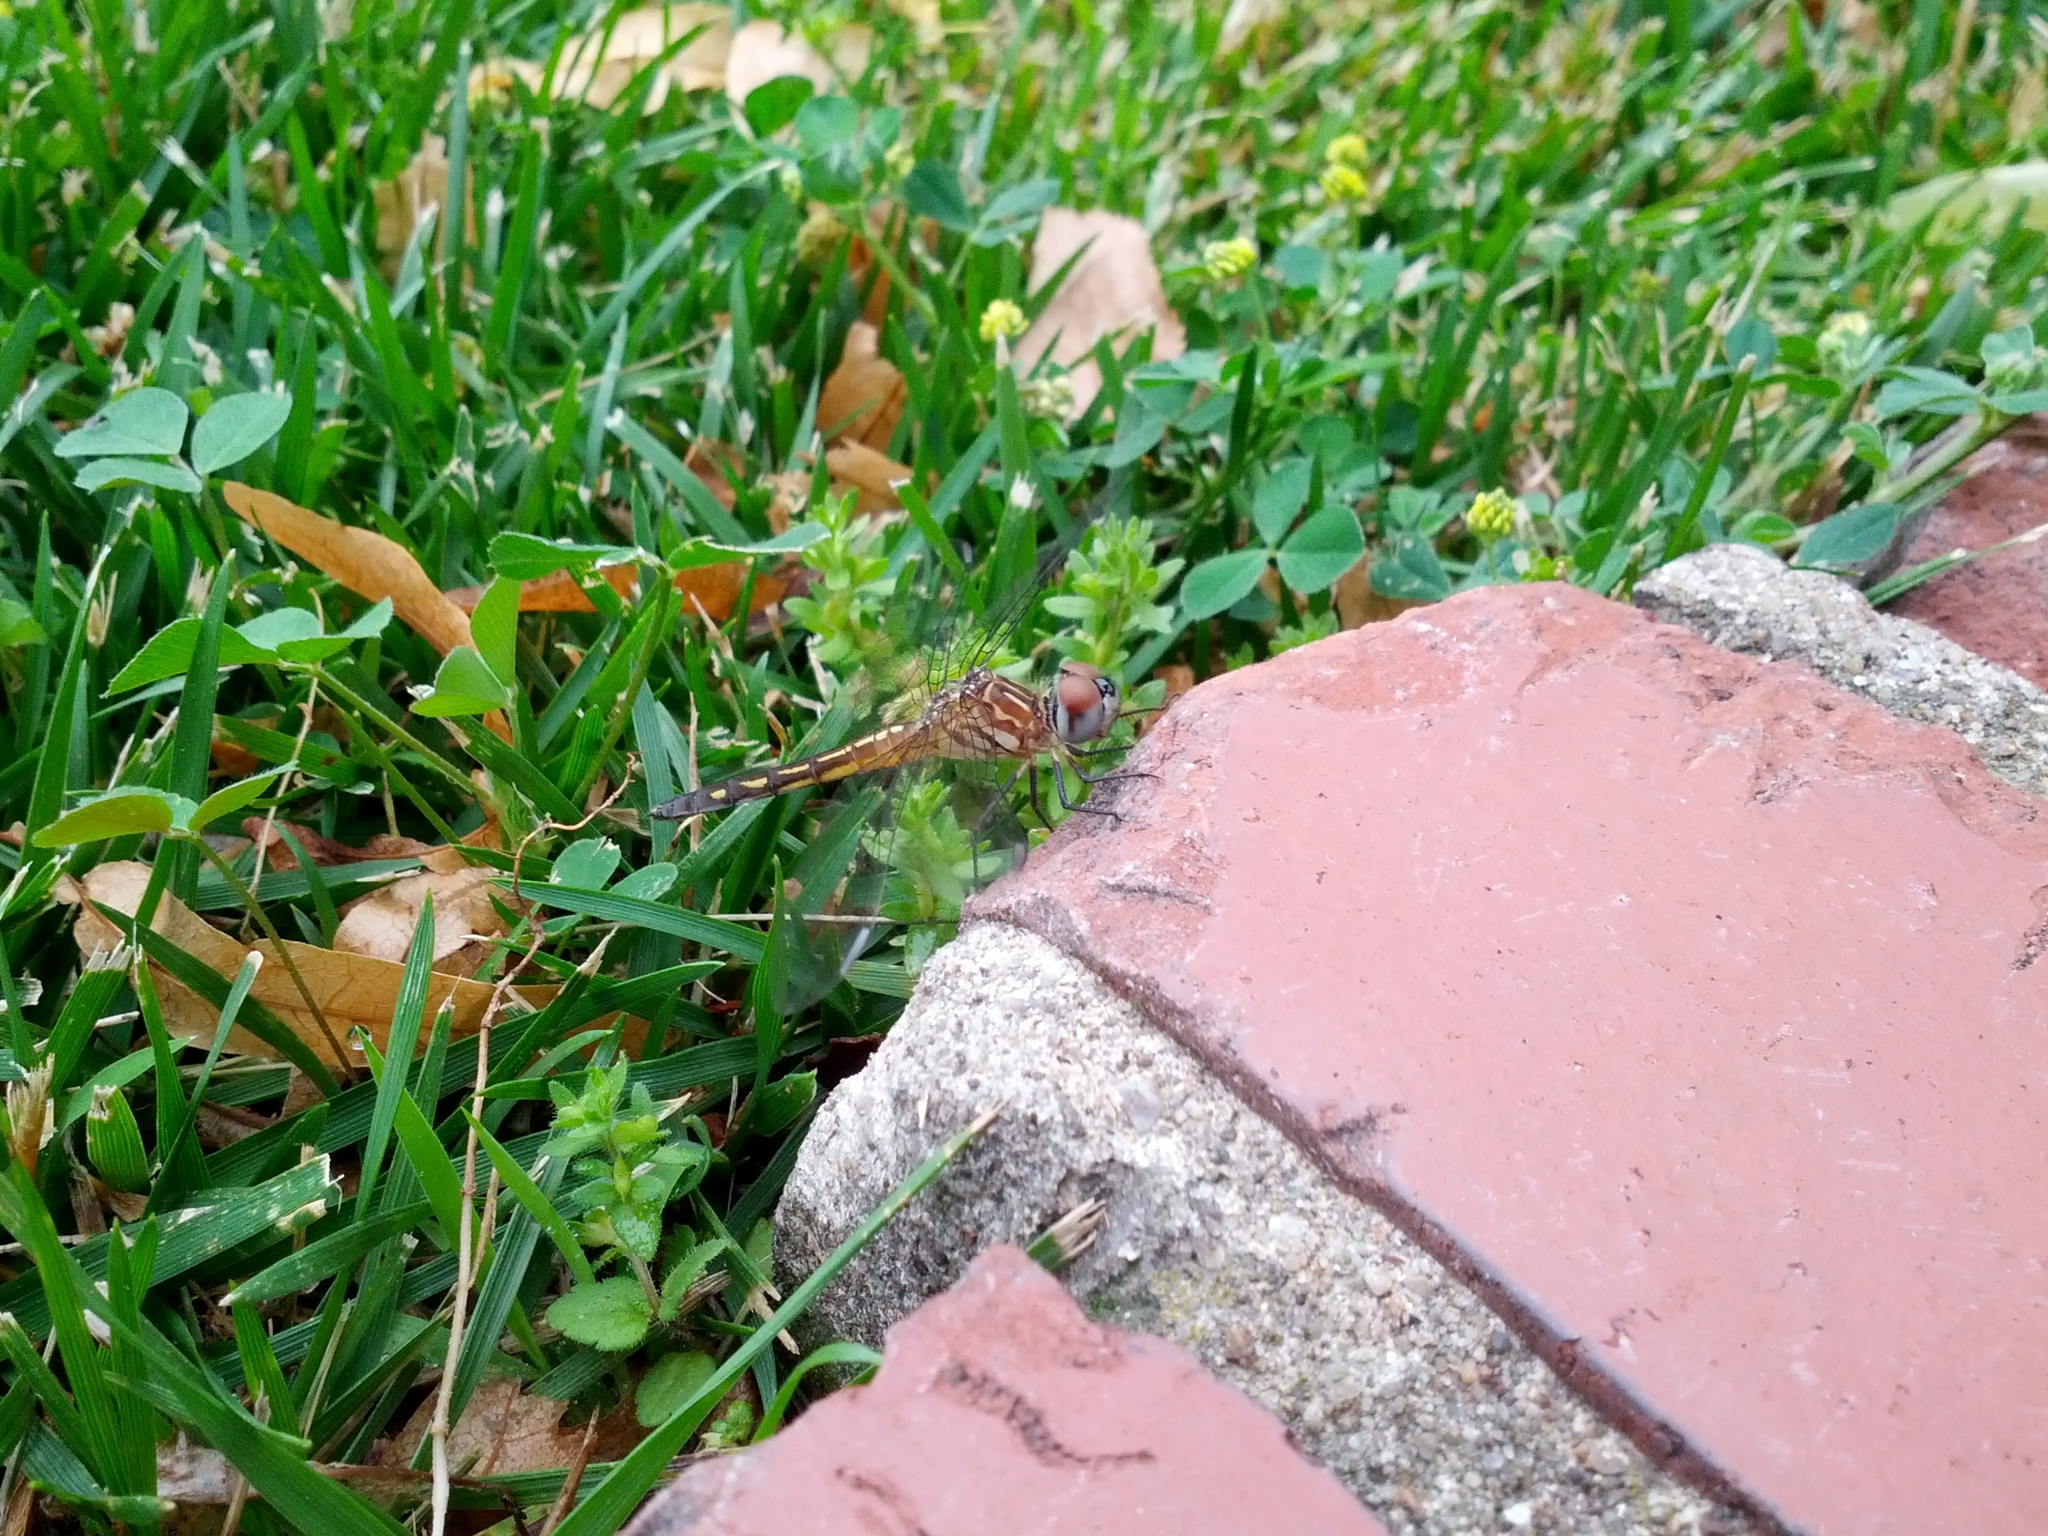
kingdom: Animalia
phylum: Arthropoda
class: Insecta
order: Odonata
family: Libellulidae
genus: Pachydiplax
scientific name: Pachydiplax longipennis
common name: Blue dasher
